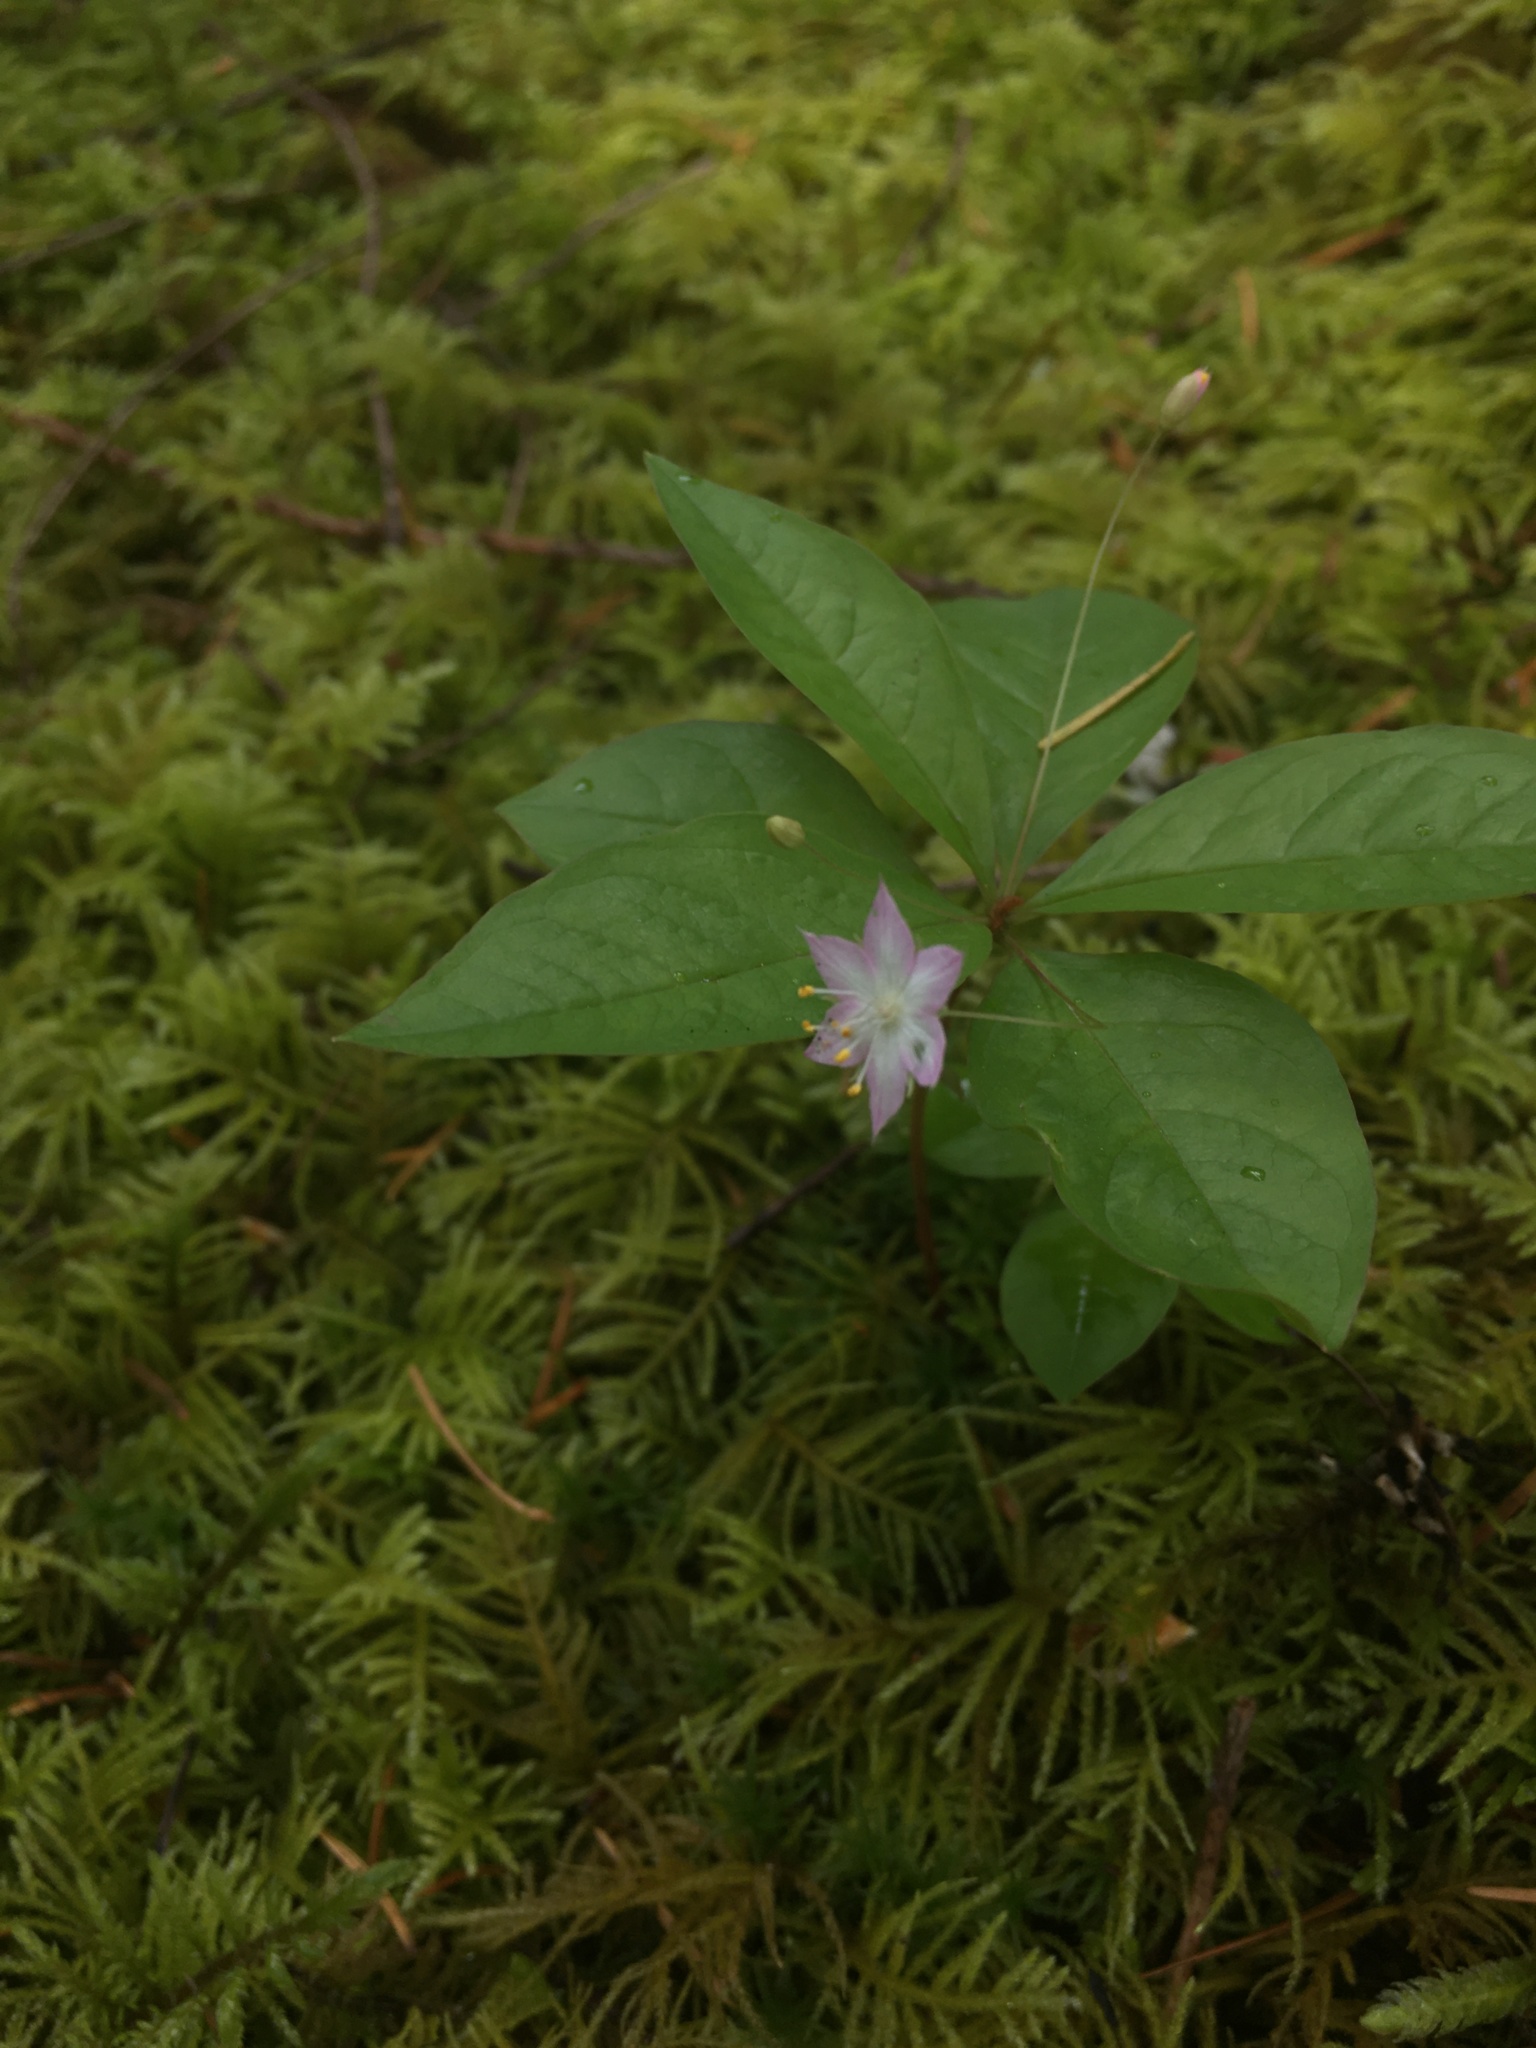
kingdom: Plantae
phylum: Tracheophyta
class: Magnoliopsida
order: Ericales
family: Primulaceae
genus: Lysimachia
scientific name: Lysimachia latifolia
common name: Pacific starflower
